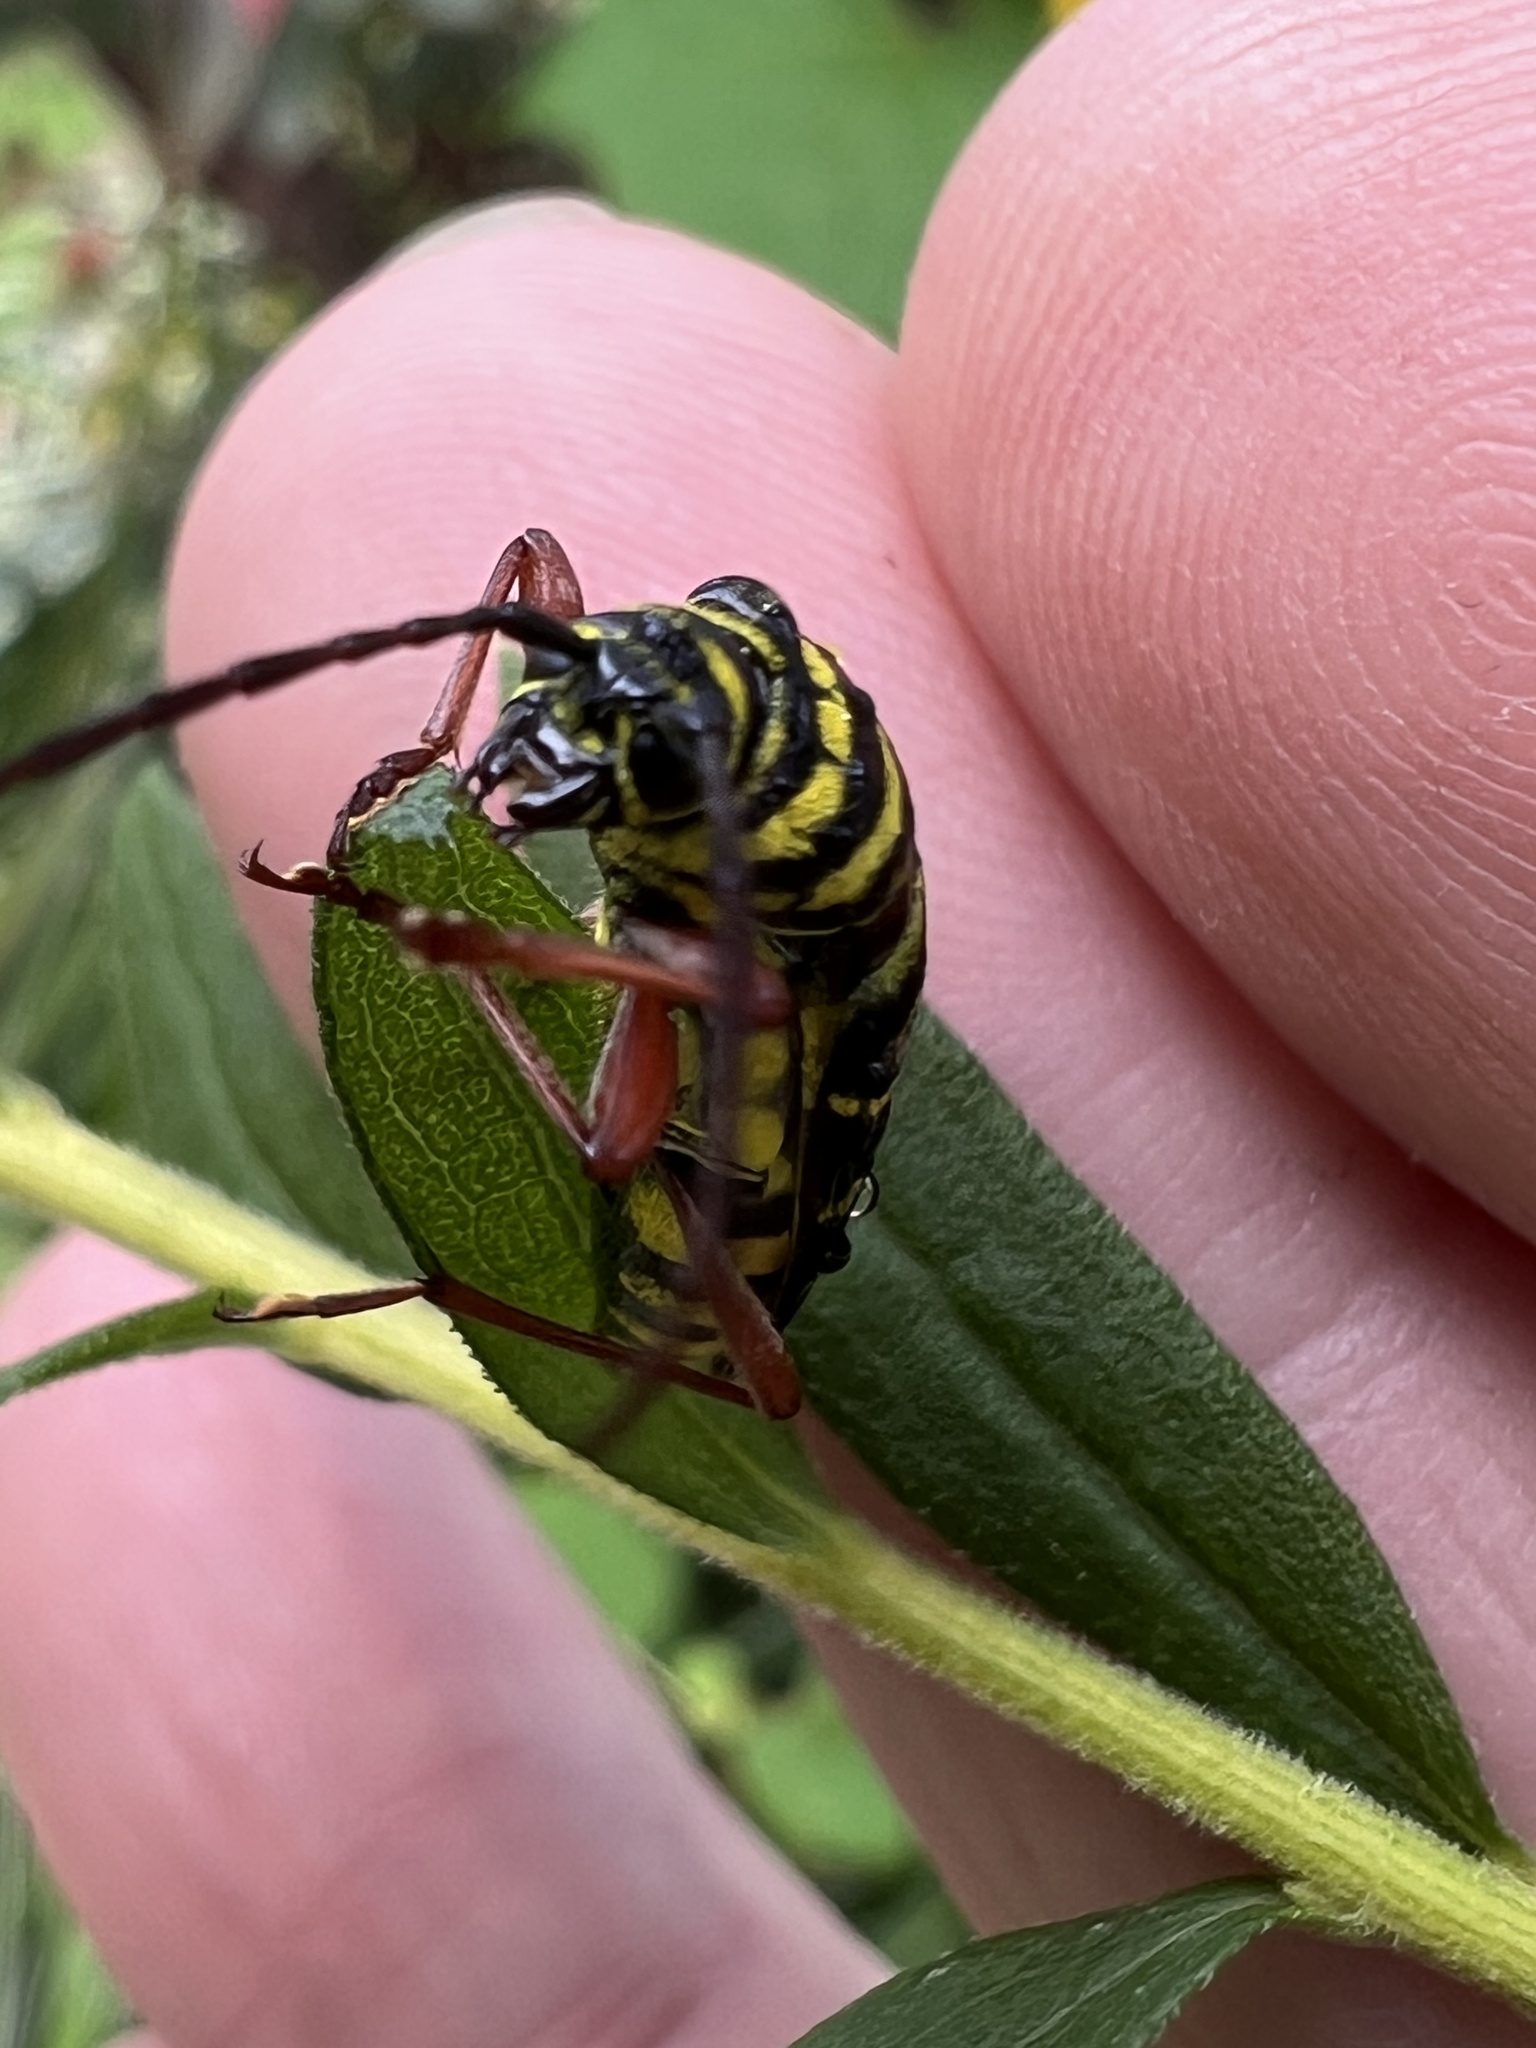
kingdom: Animalia
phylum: Arthropoda
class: Insecta
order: Coleoptera
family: Cerambycidae
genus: Megacyllene
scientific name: Megacyllene robiniae
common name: Locust borer
